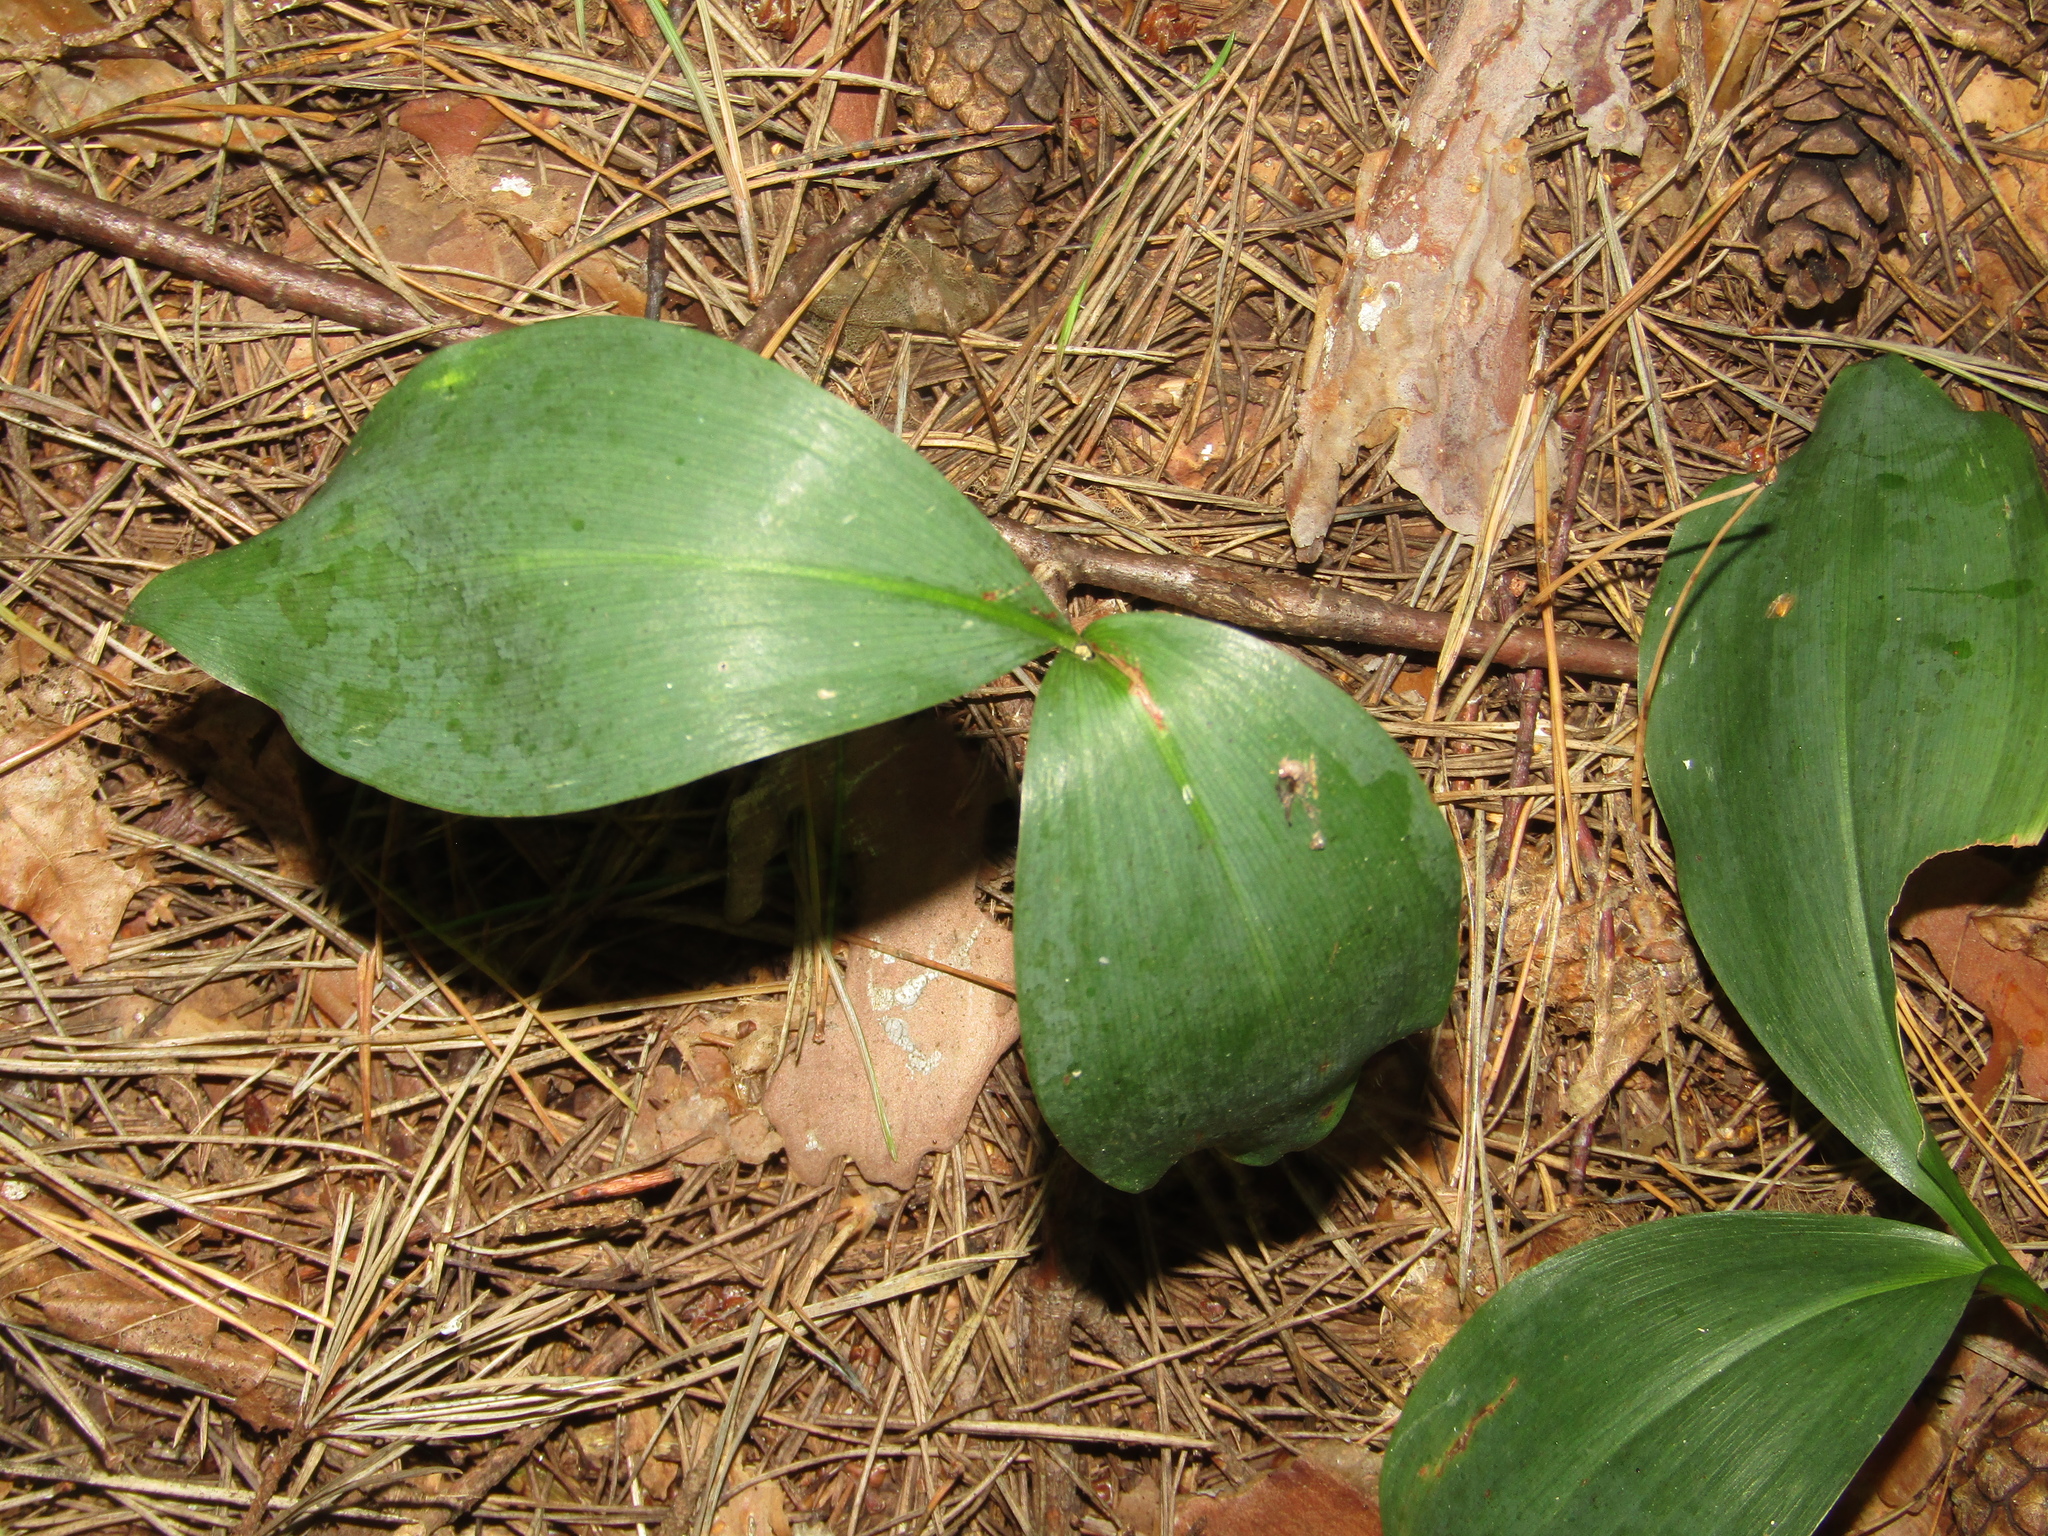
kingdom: Plantae
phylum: Tracheophyta
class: Liliopsida
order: Asparagales
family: Asparagaceae
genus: Convallaria
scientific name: Convallaria majalis
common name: Lily-of-the-valley
